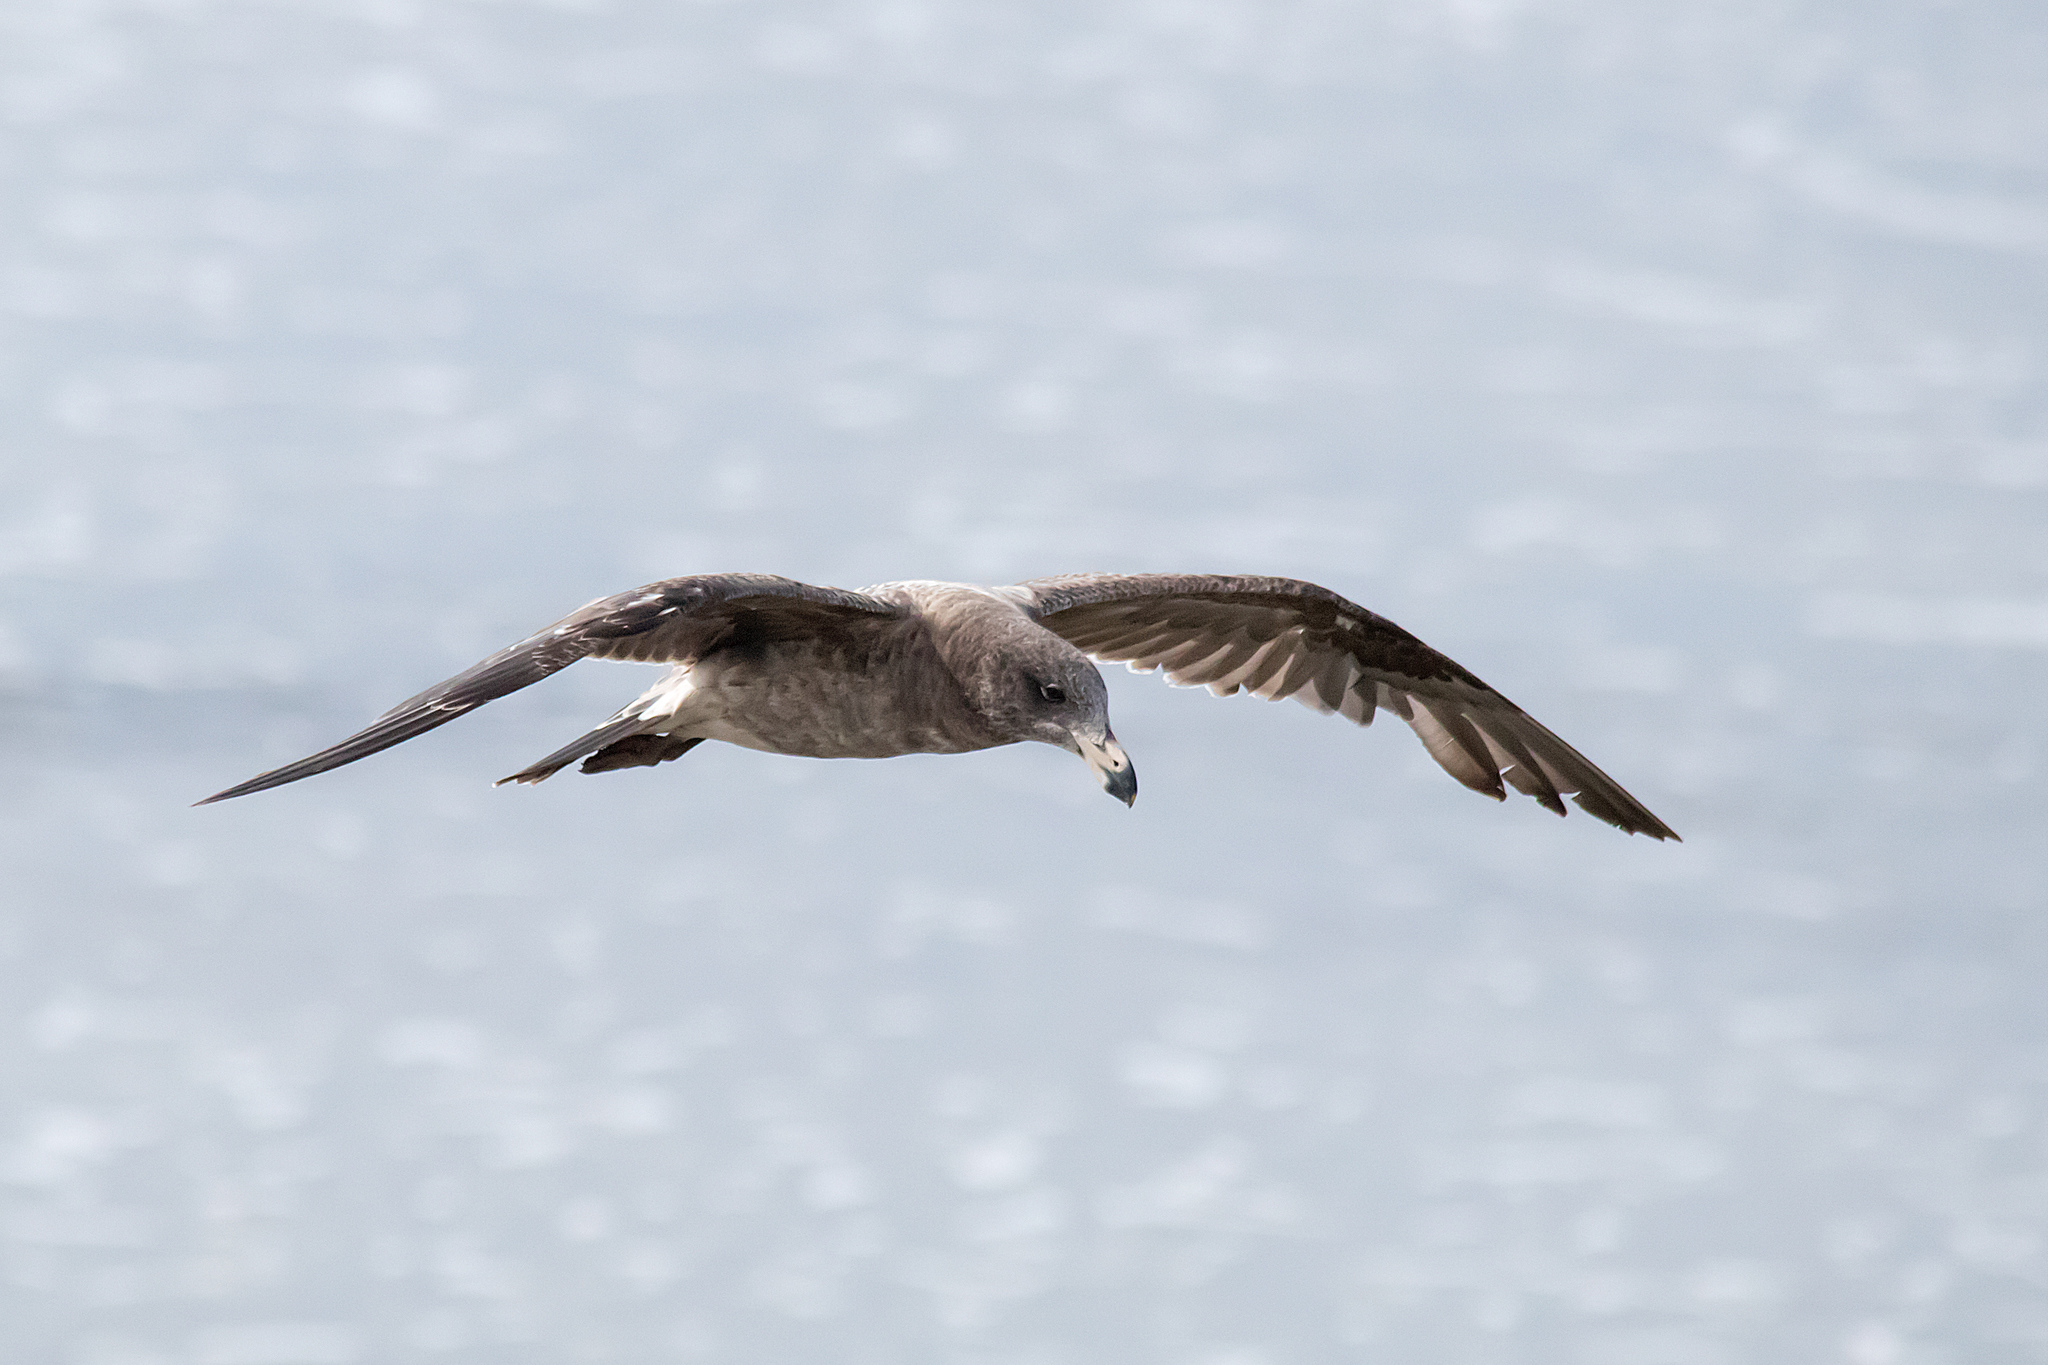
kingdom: Animalia
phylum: Chordata
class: Aves
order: Charadriiformes
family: Laridae
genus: Larus
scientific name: Larus pacificus
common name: Pacific gull
